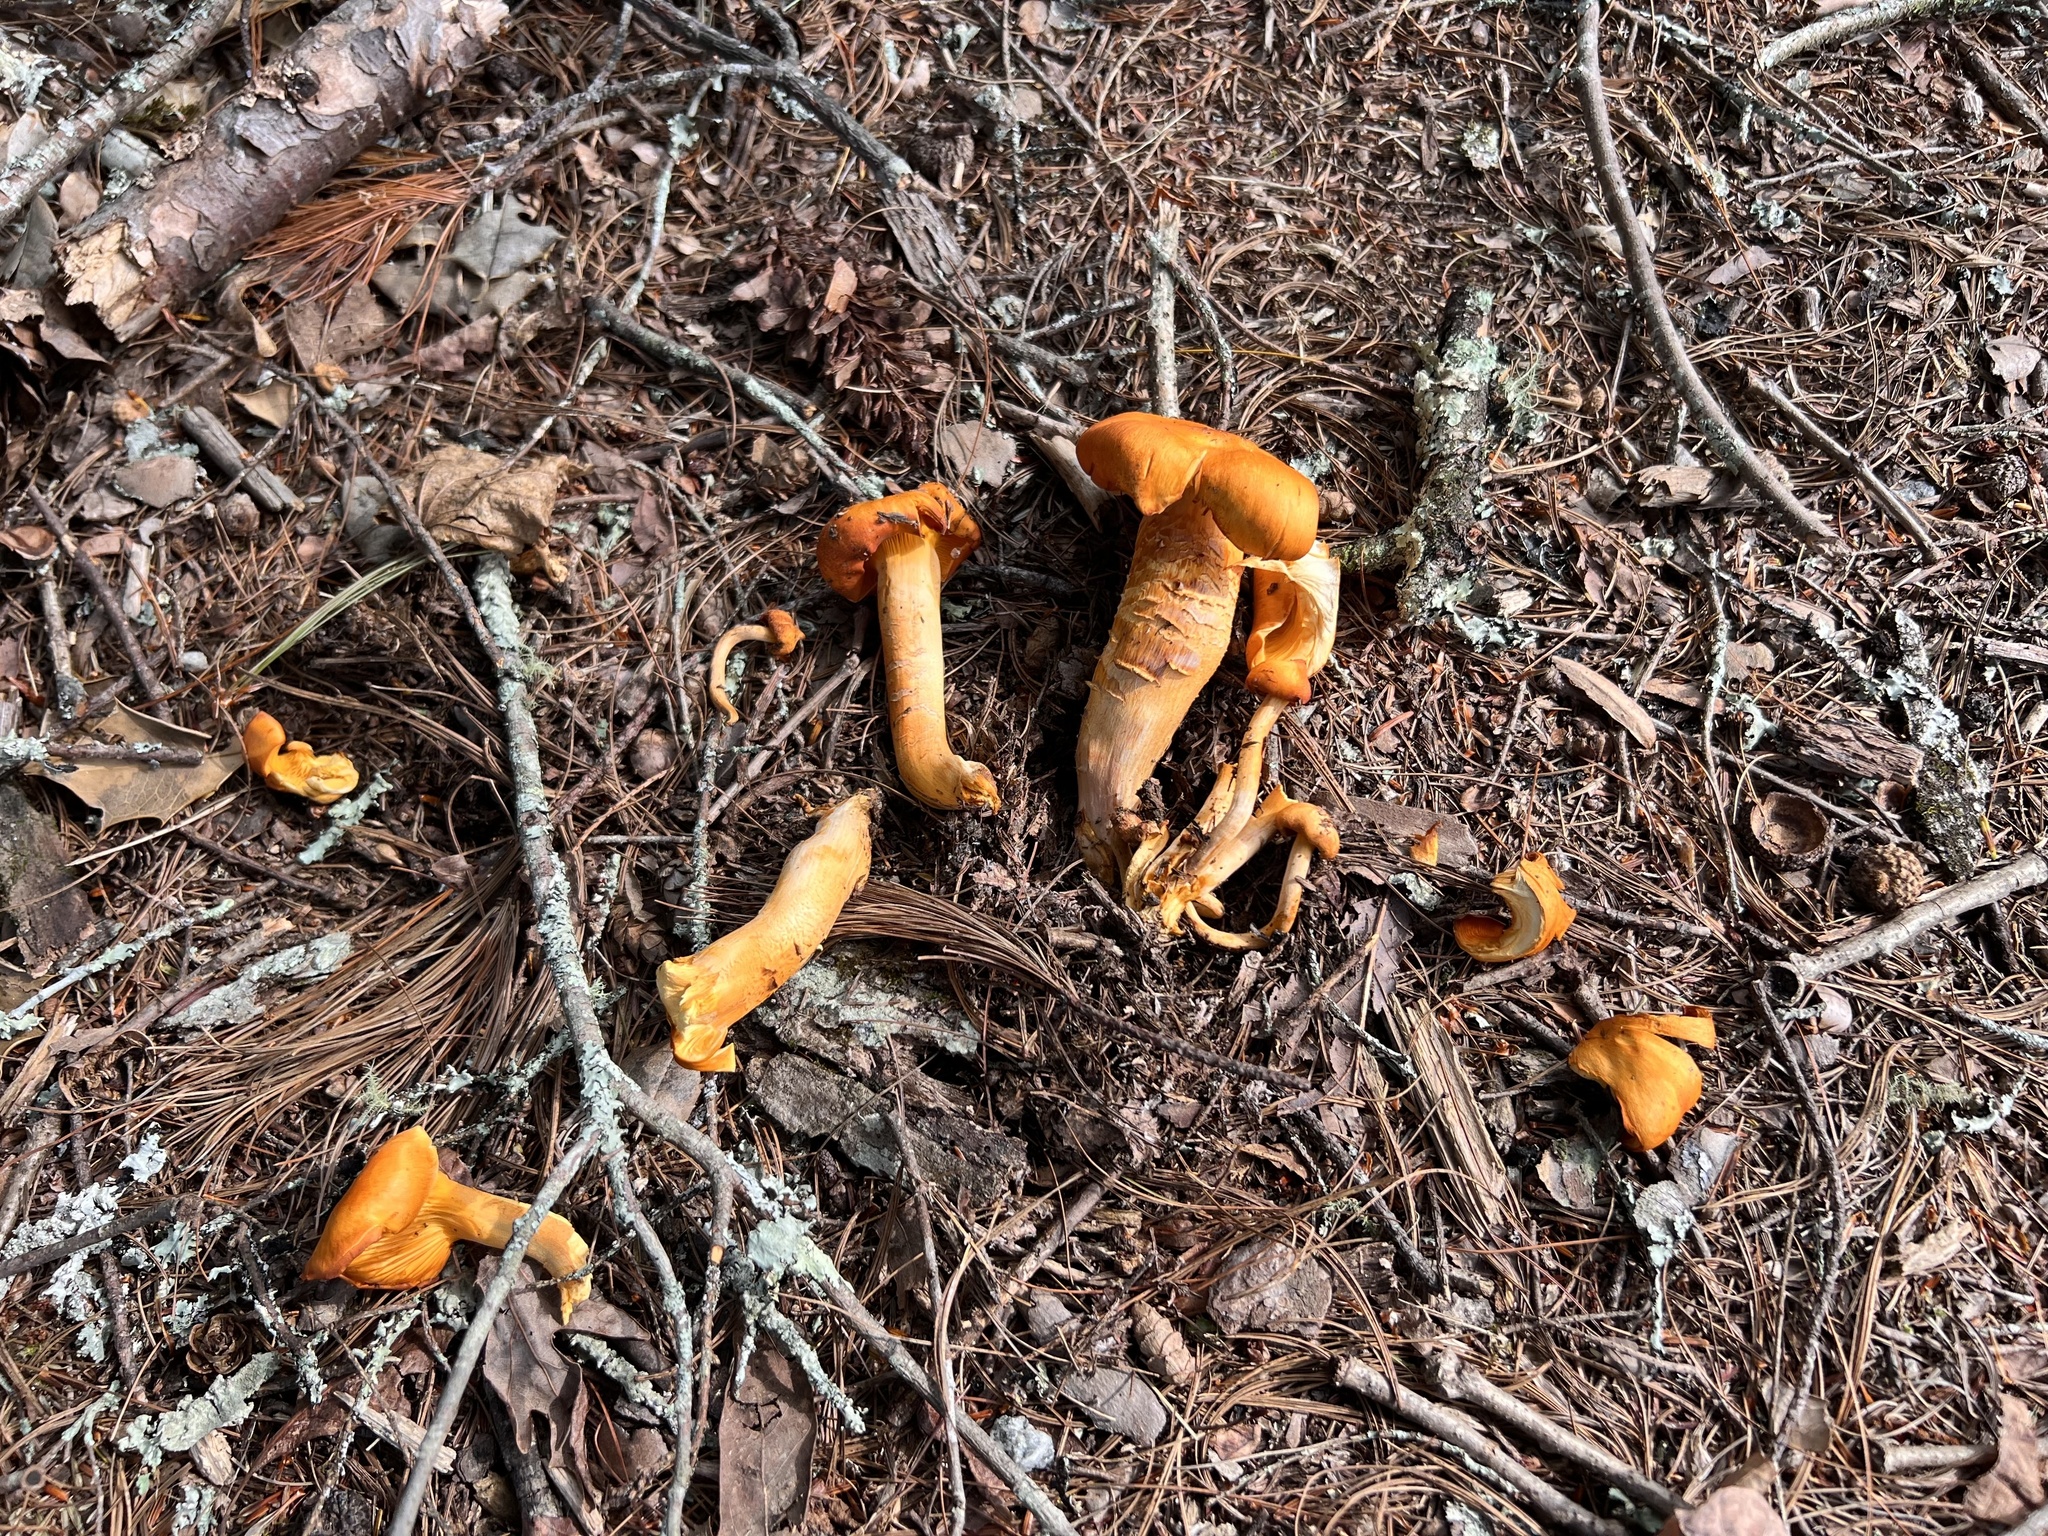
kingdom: Fungi
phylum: Basidiomycota
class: Agaricomycetes
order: Agaricales
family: Omphalotaceae
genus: Omphalotus
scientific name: Omphalotus illudens
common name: Jack o lantern
